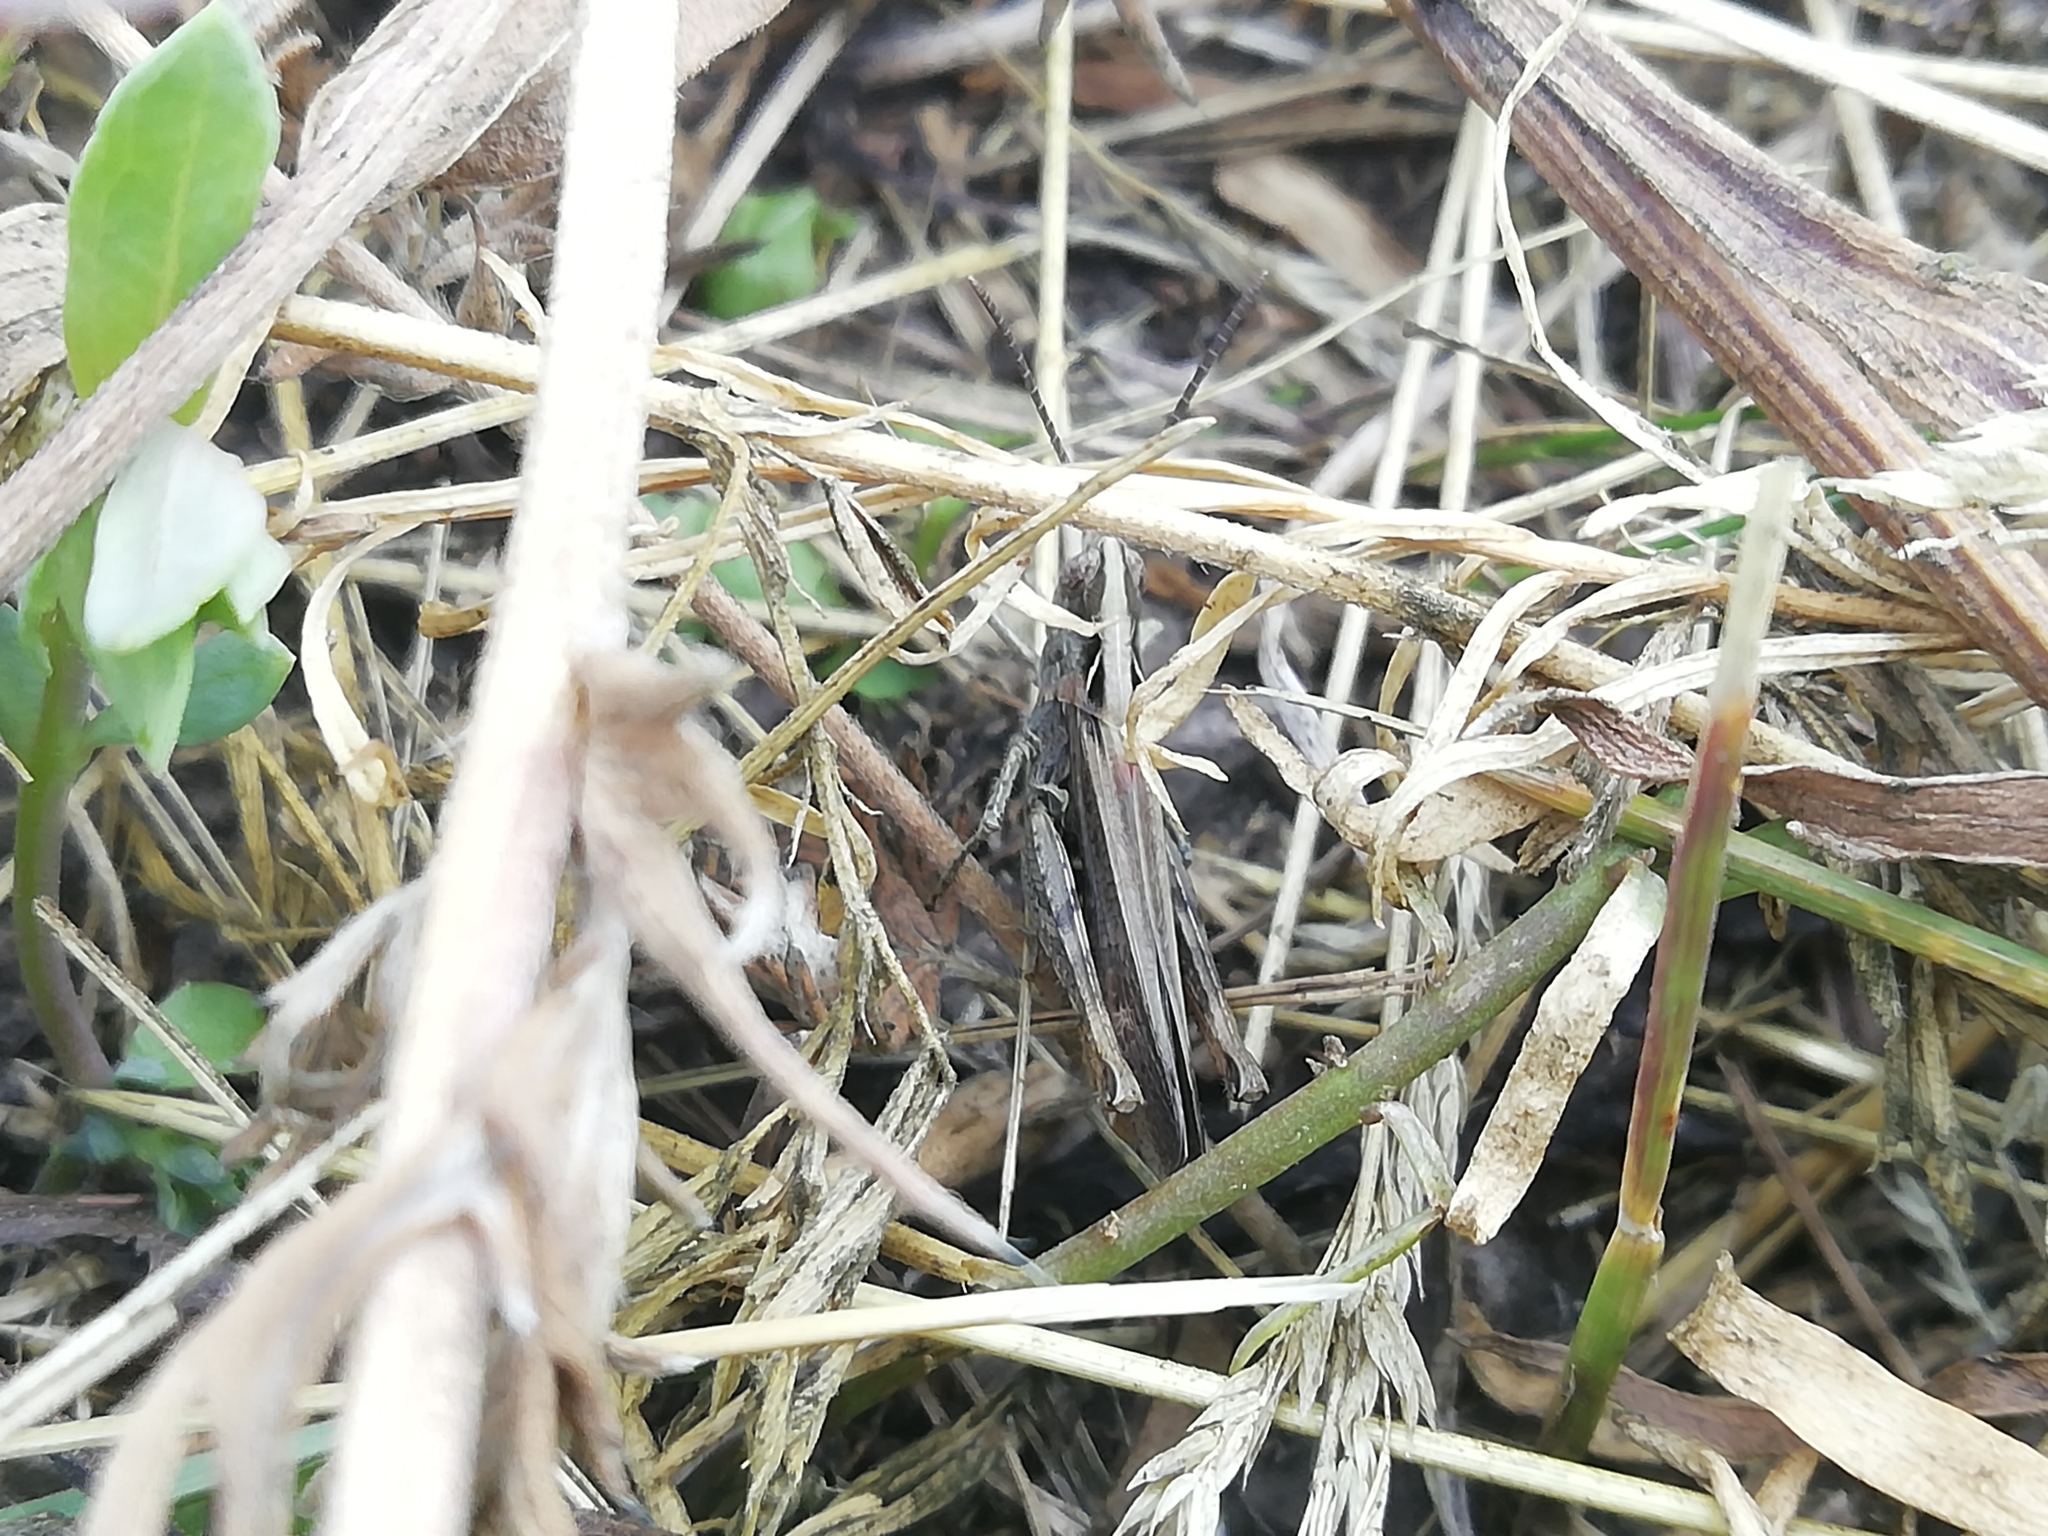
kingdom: Animalia
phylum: Arthropoda
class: Insecta
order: Orthoptera
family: Acrididae
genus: Chorthippus
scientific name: Chorthippus biguttulus
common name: Bow-winged grasshopper
